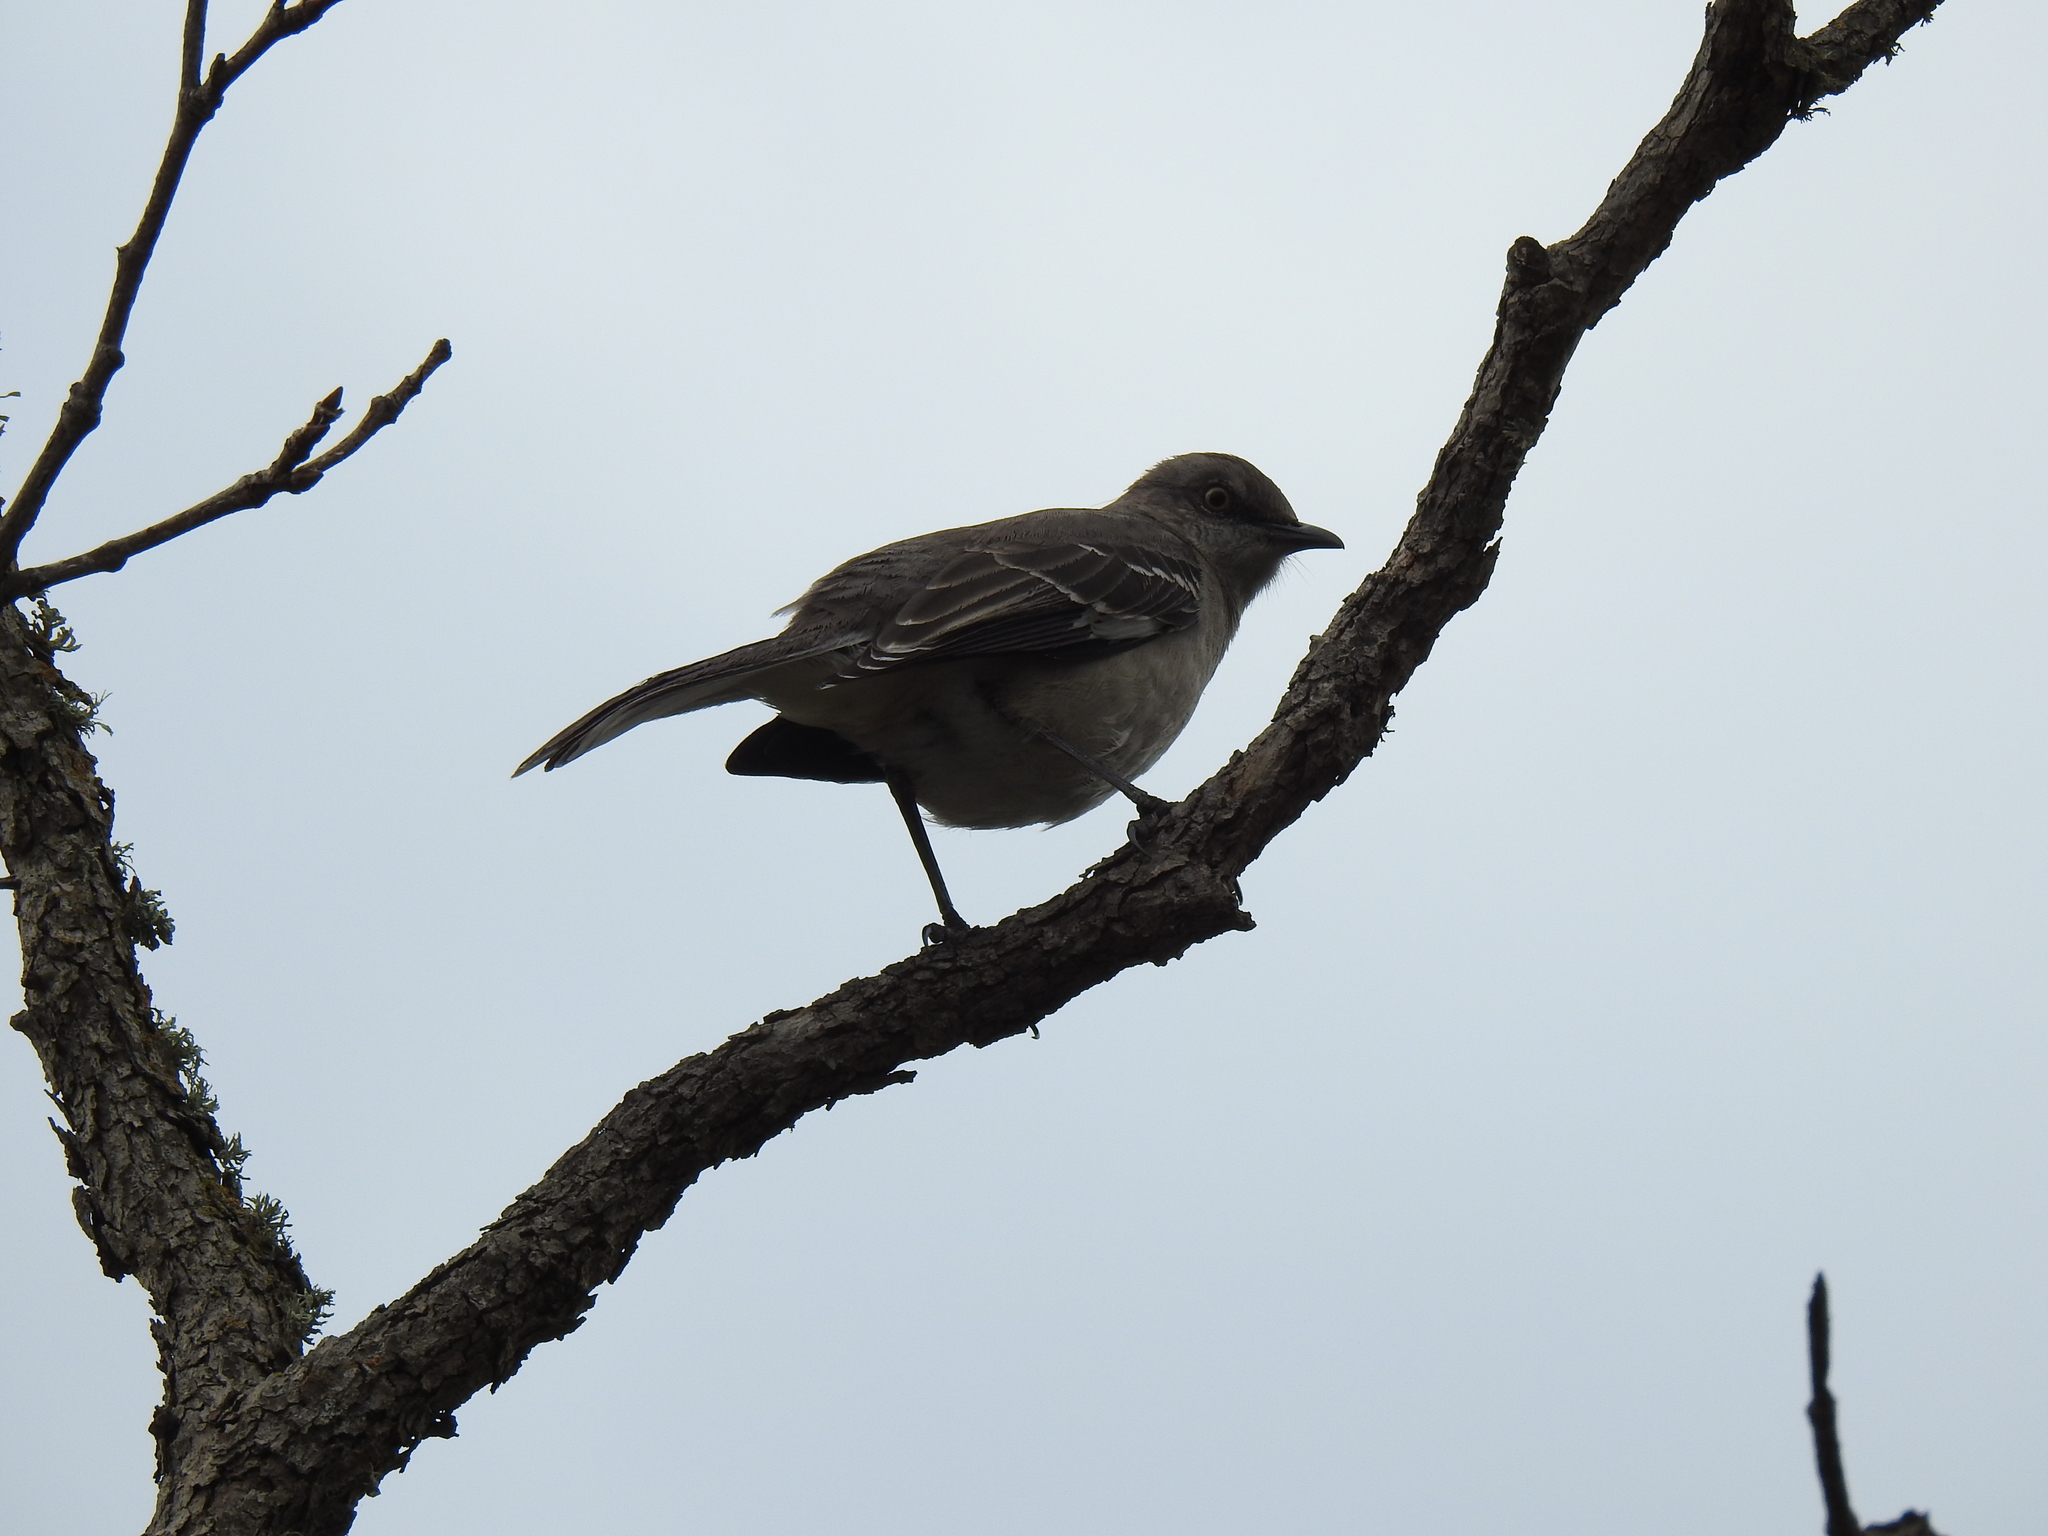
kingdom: Animalia
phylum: Chordata
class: Aves
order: Passeriformes
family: Mimidae
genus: Mimus
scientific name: Mimus polyglottos
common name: Northern mockingbird
